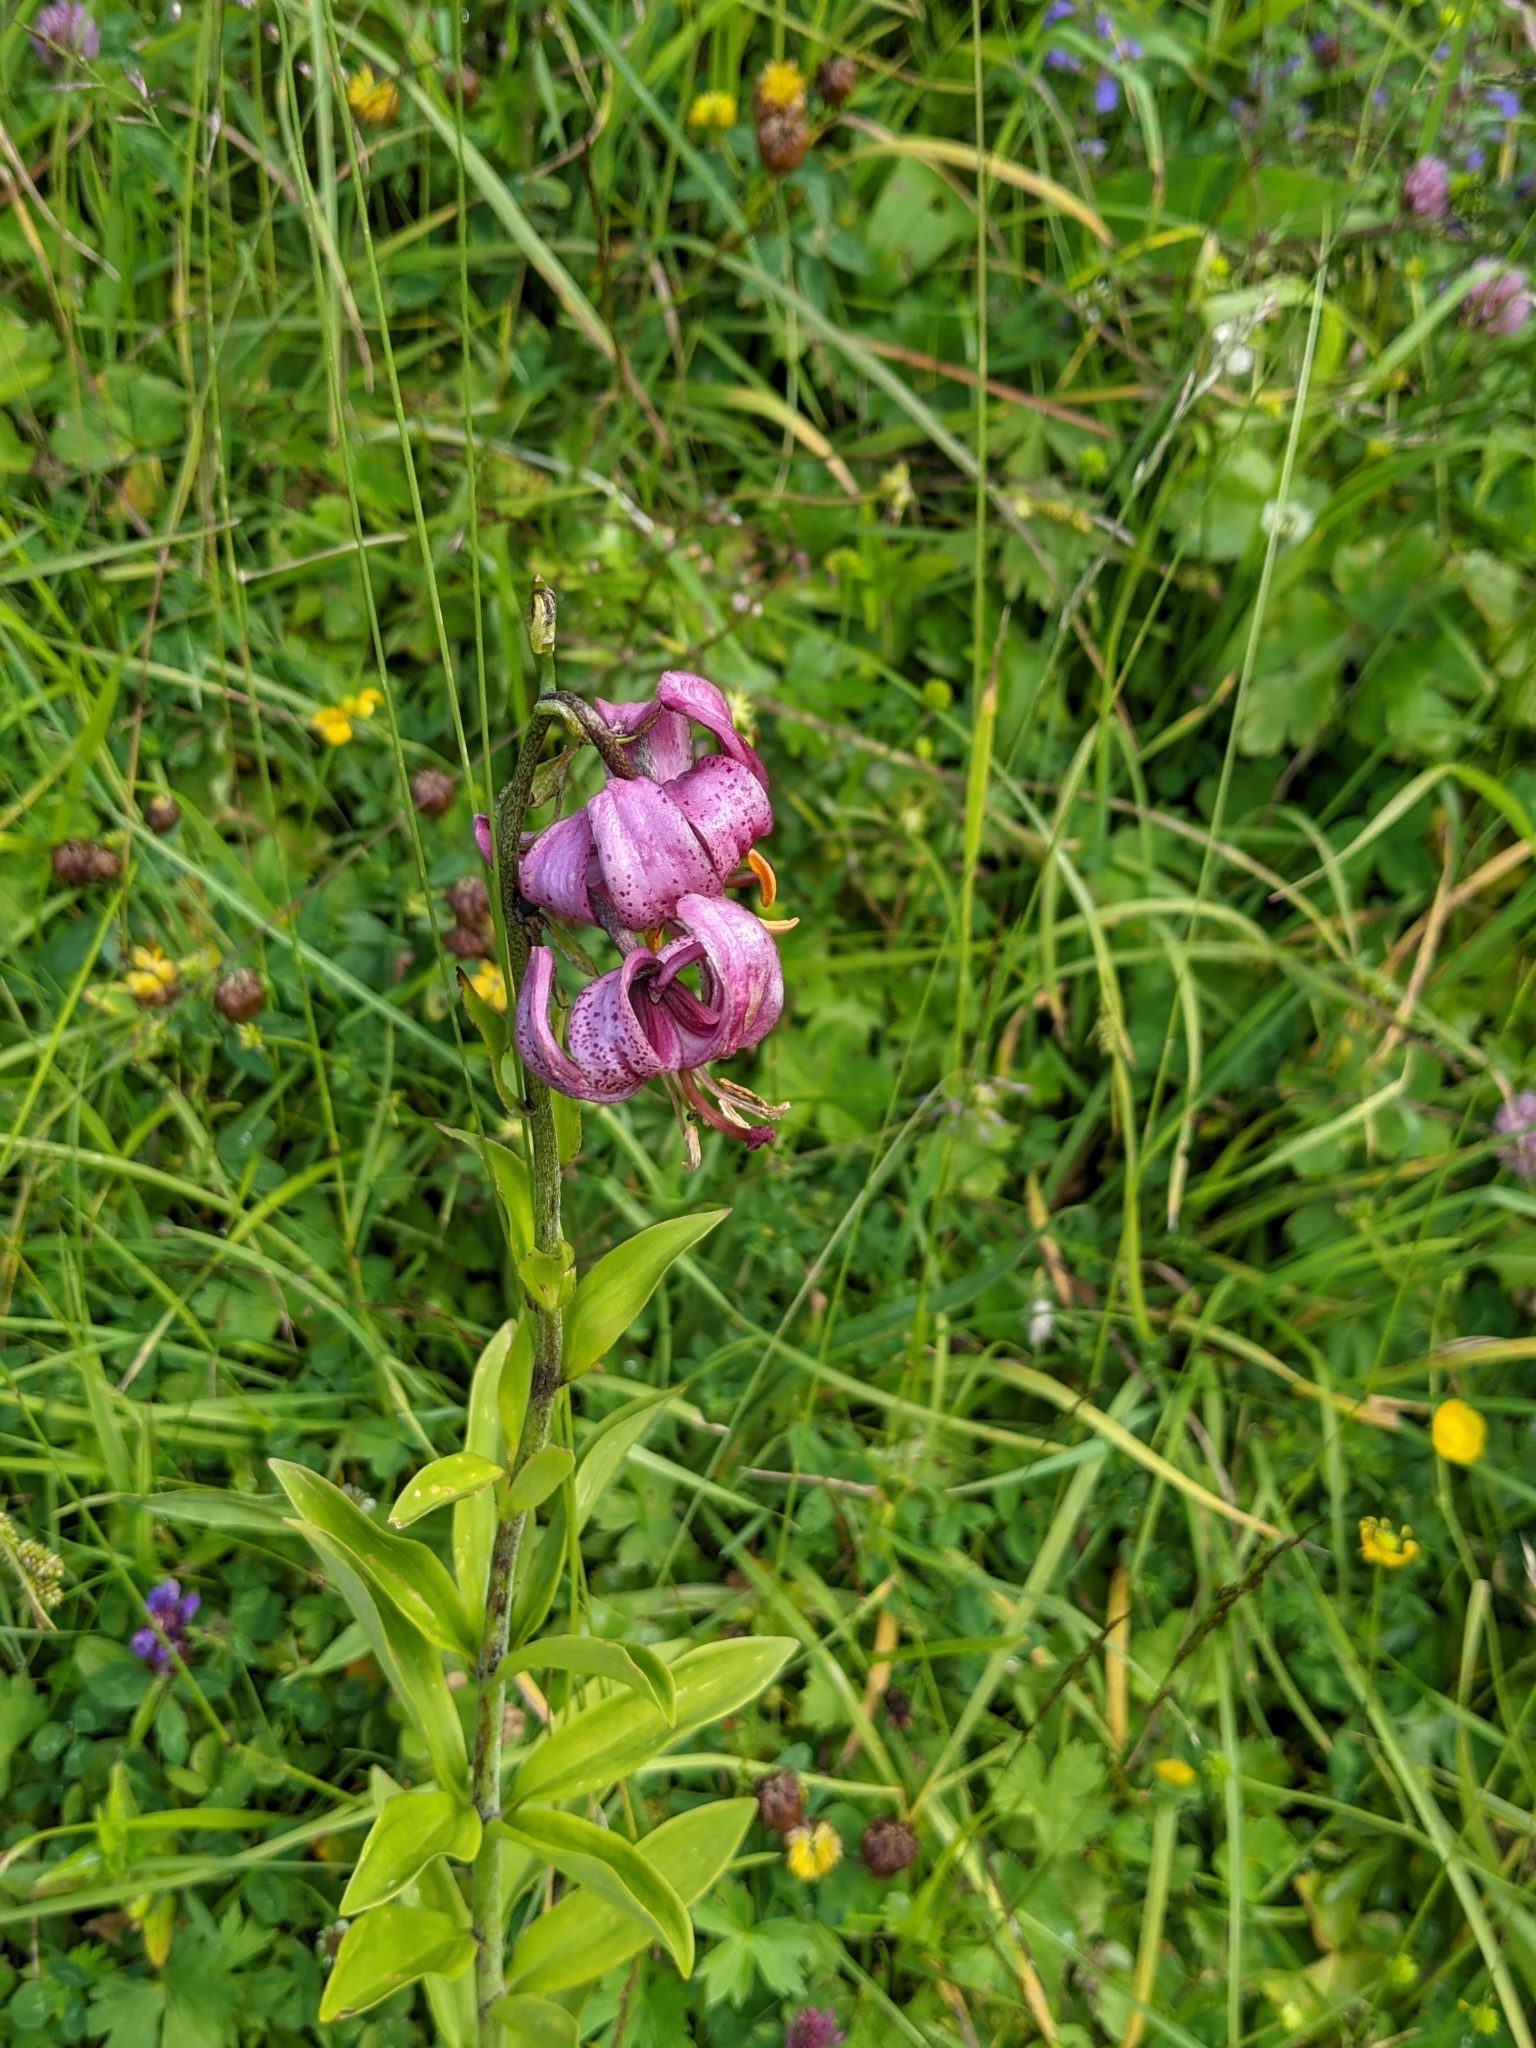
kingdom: Plantae
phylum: Tracheophyta
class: Liliopsida
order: Liliales
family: Liliaceae
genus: Lilium
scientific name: Lilium martagon
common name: Martagon lily
